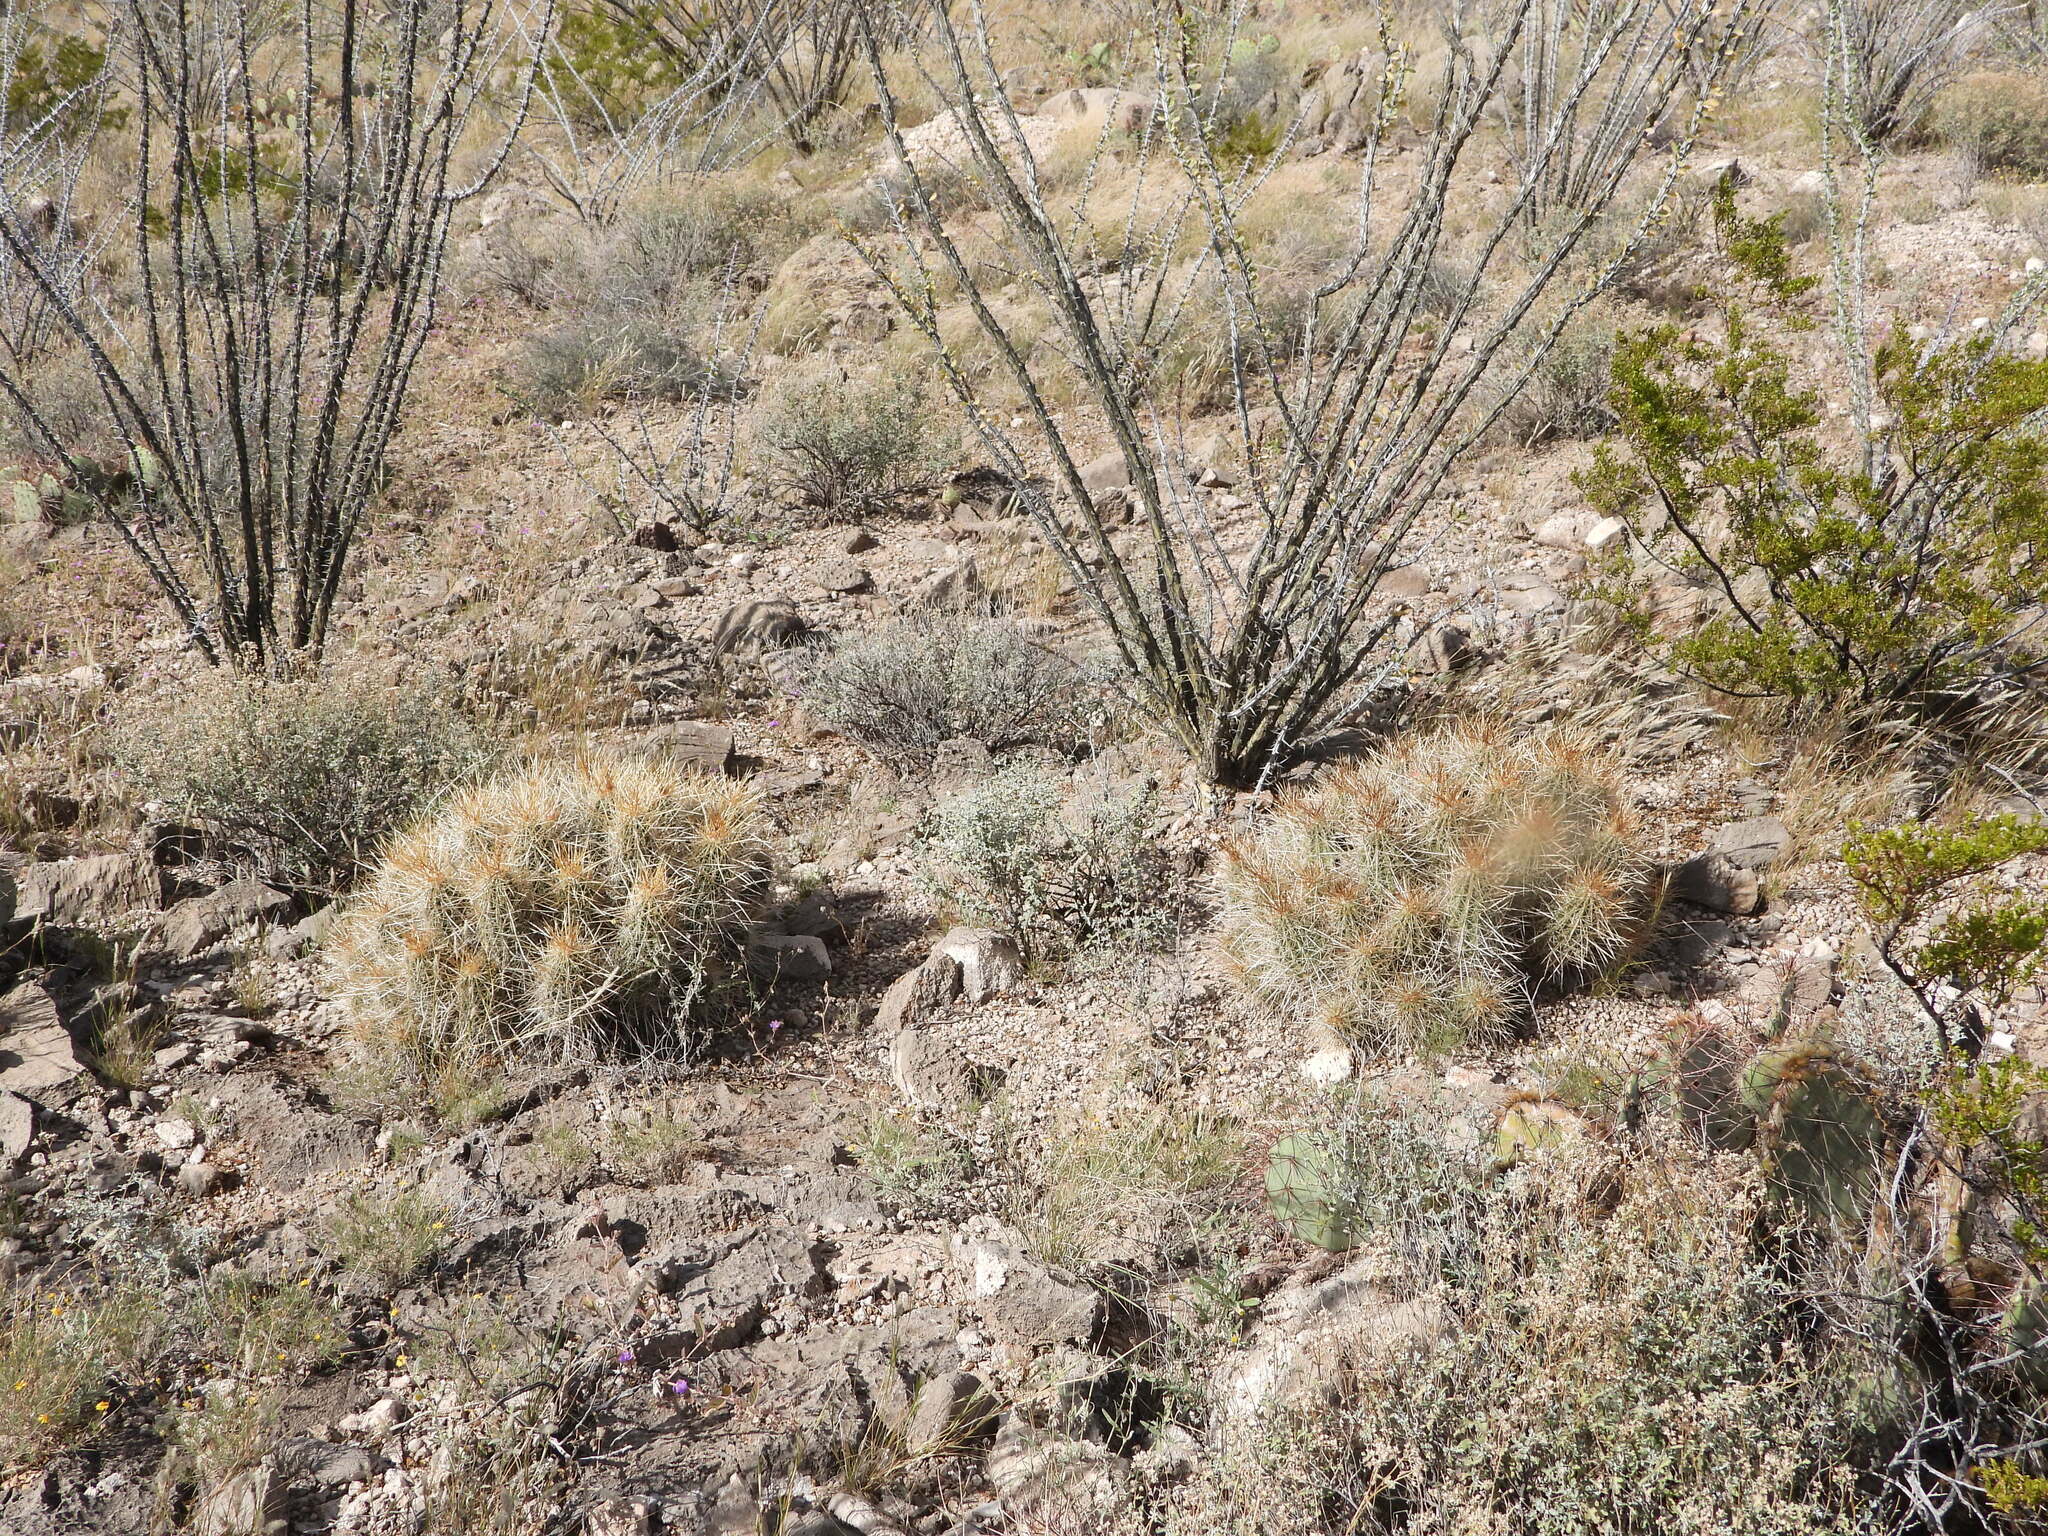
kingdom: Plantae
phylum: Tracheophyta
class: Magnoliopsida
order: Caryophyllales
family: Cactaceae
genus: Echinocereus
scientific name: Echinocereus stramineus
